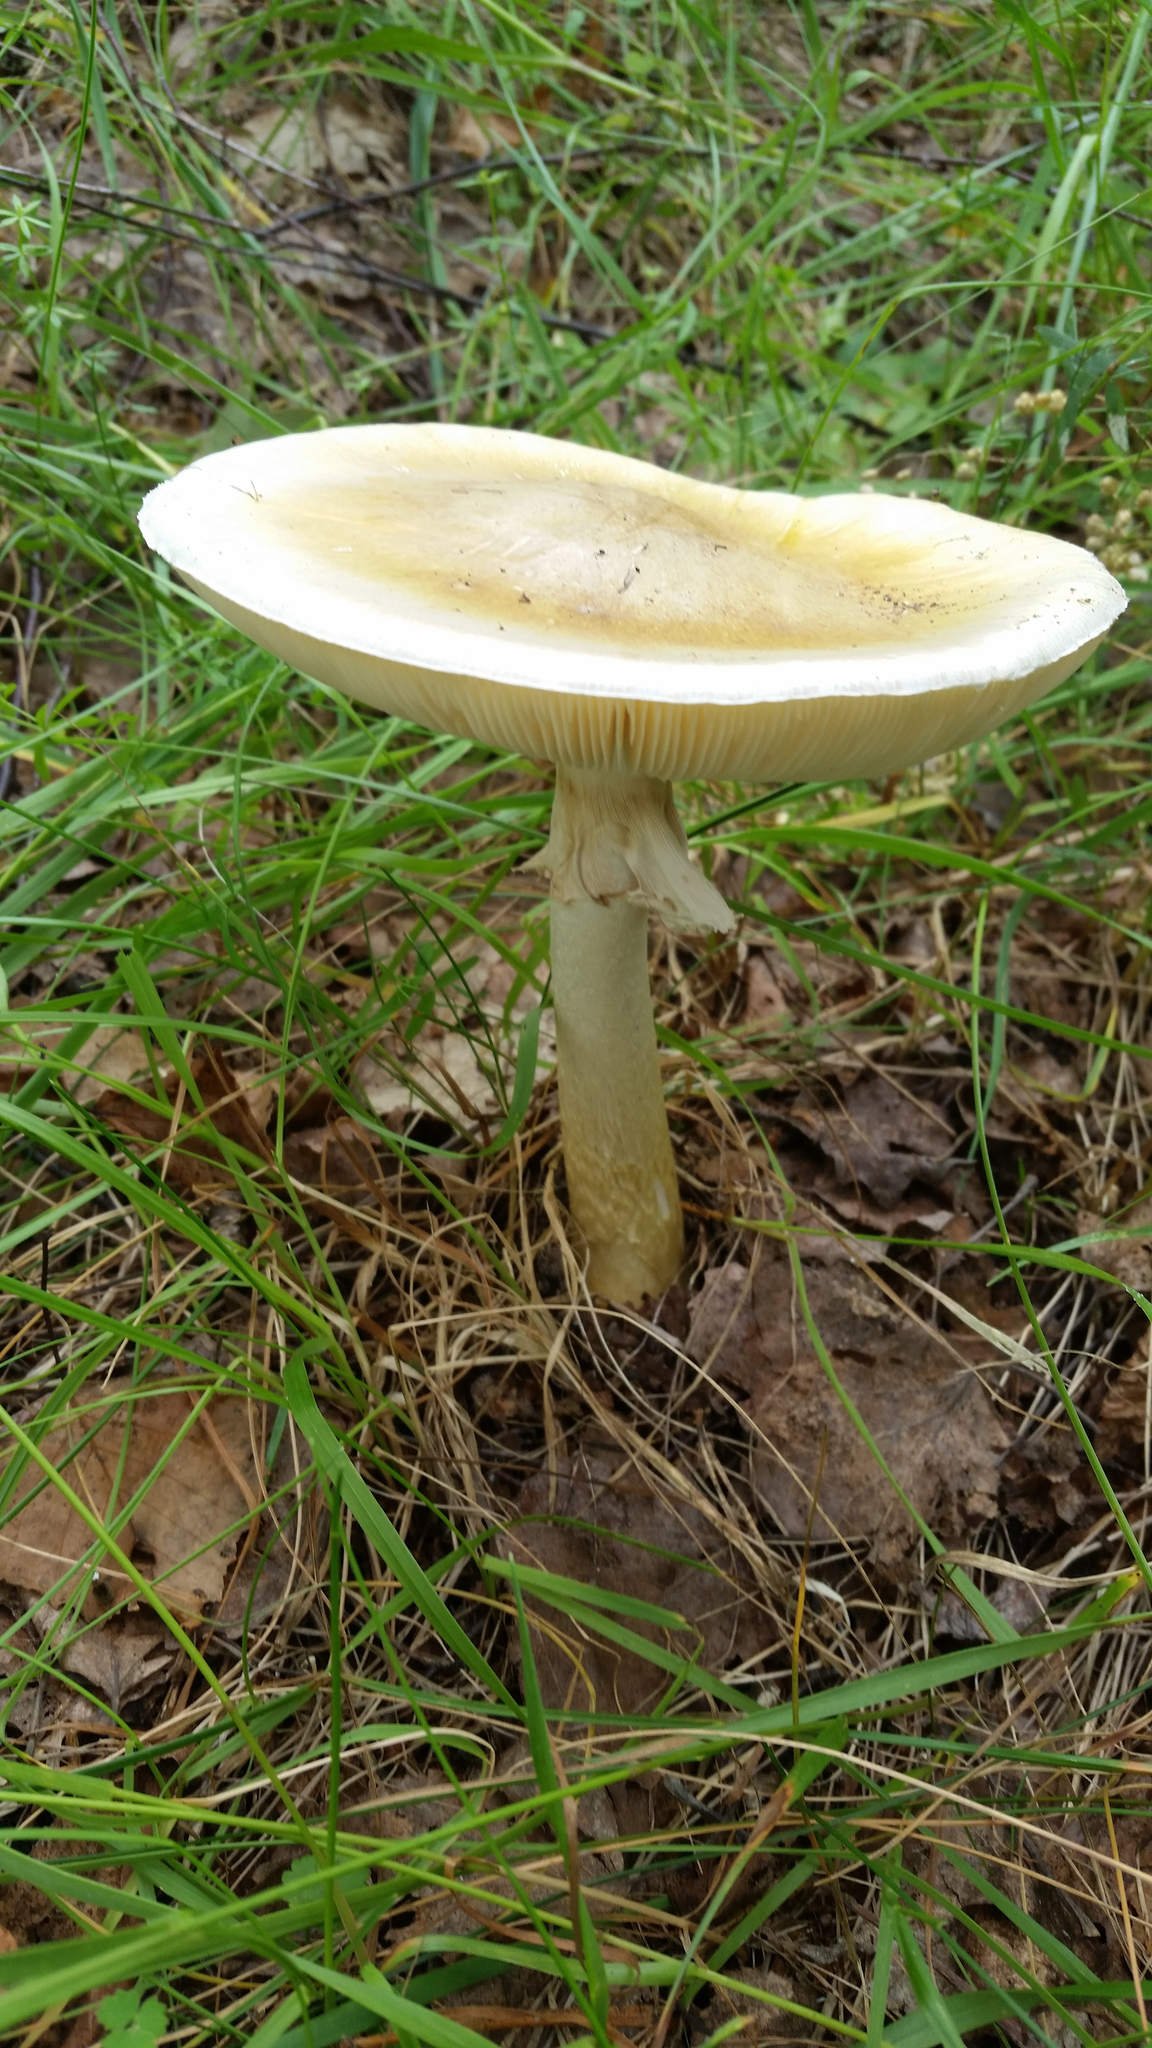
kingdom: Fungi
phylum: Basidiomycota
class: Agaricomycetes
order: Agaricales
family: Amanitaceae
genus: Amanita
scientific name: Amanita phalloides
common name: Death cap
